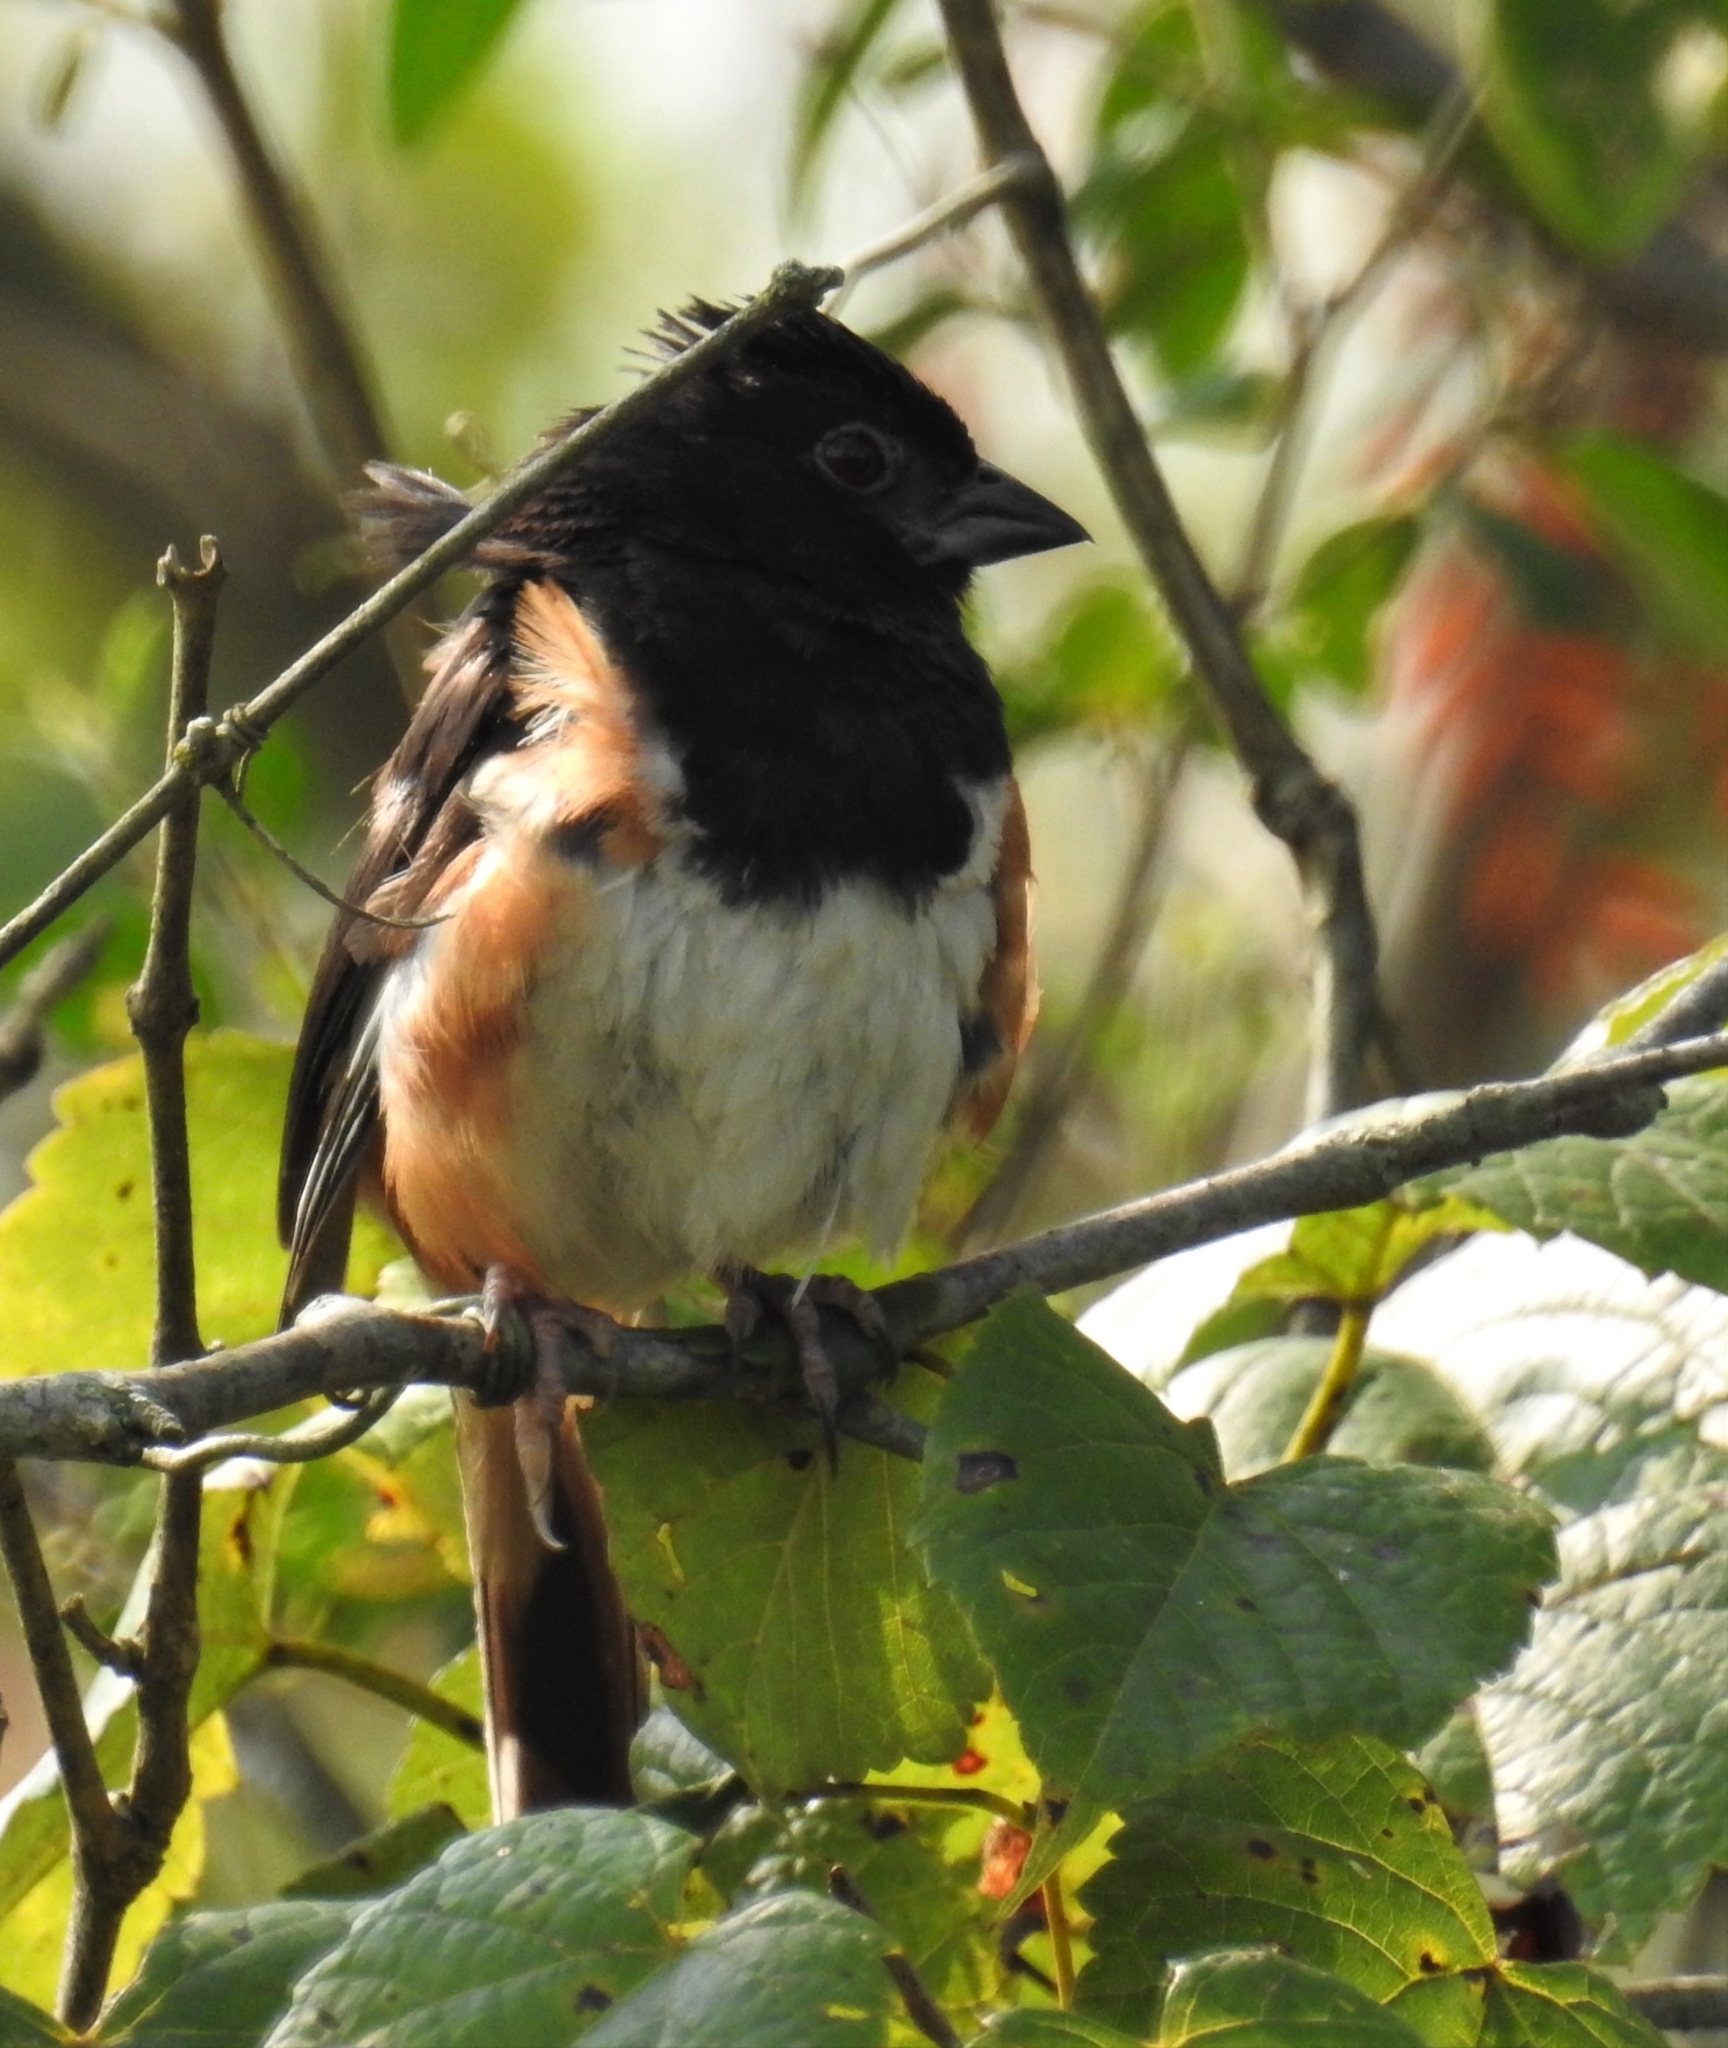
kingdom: Animalia
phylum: Chordata
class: Aves
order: Passeriformes
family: Passerellidae
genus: Pipilo
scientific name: Pipilo erythrophthalmus
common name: Eastern towhee
